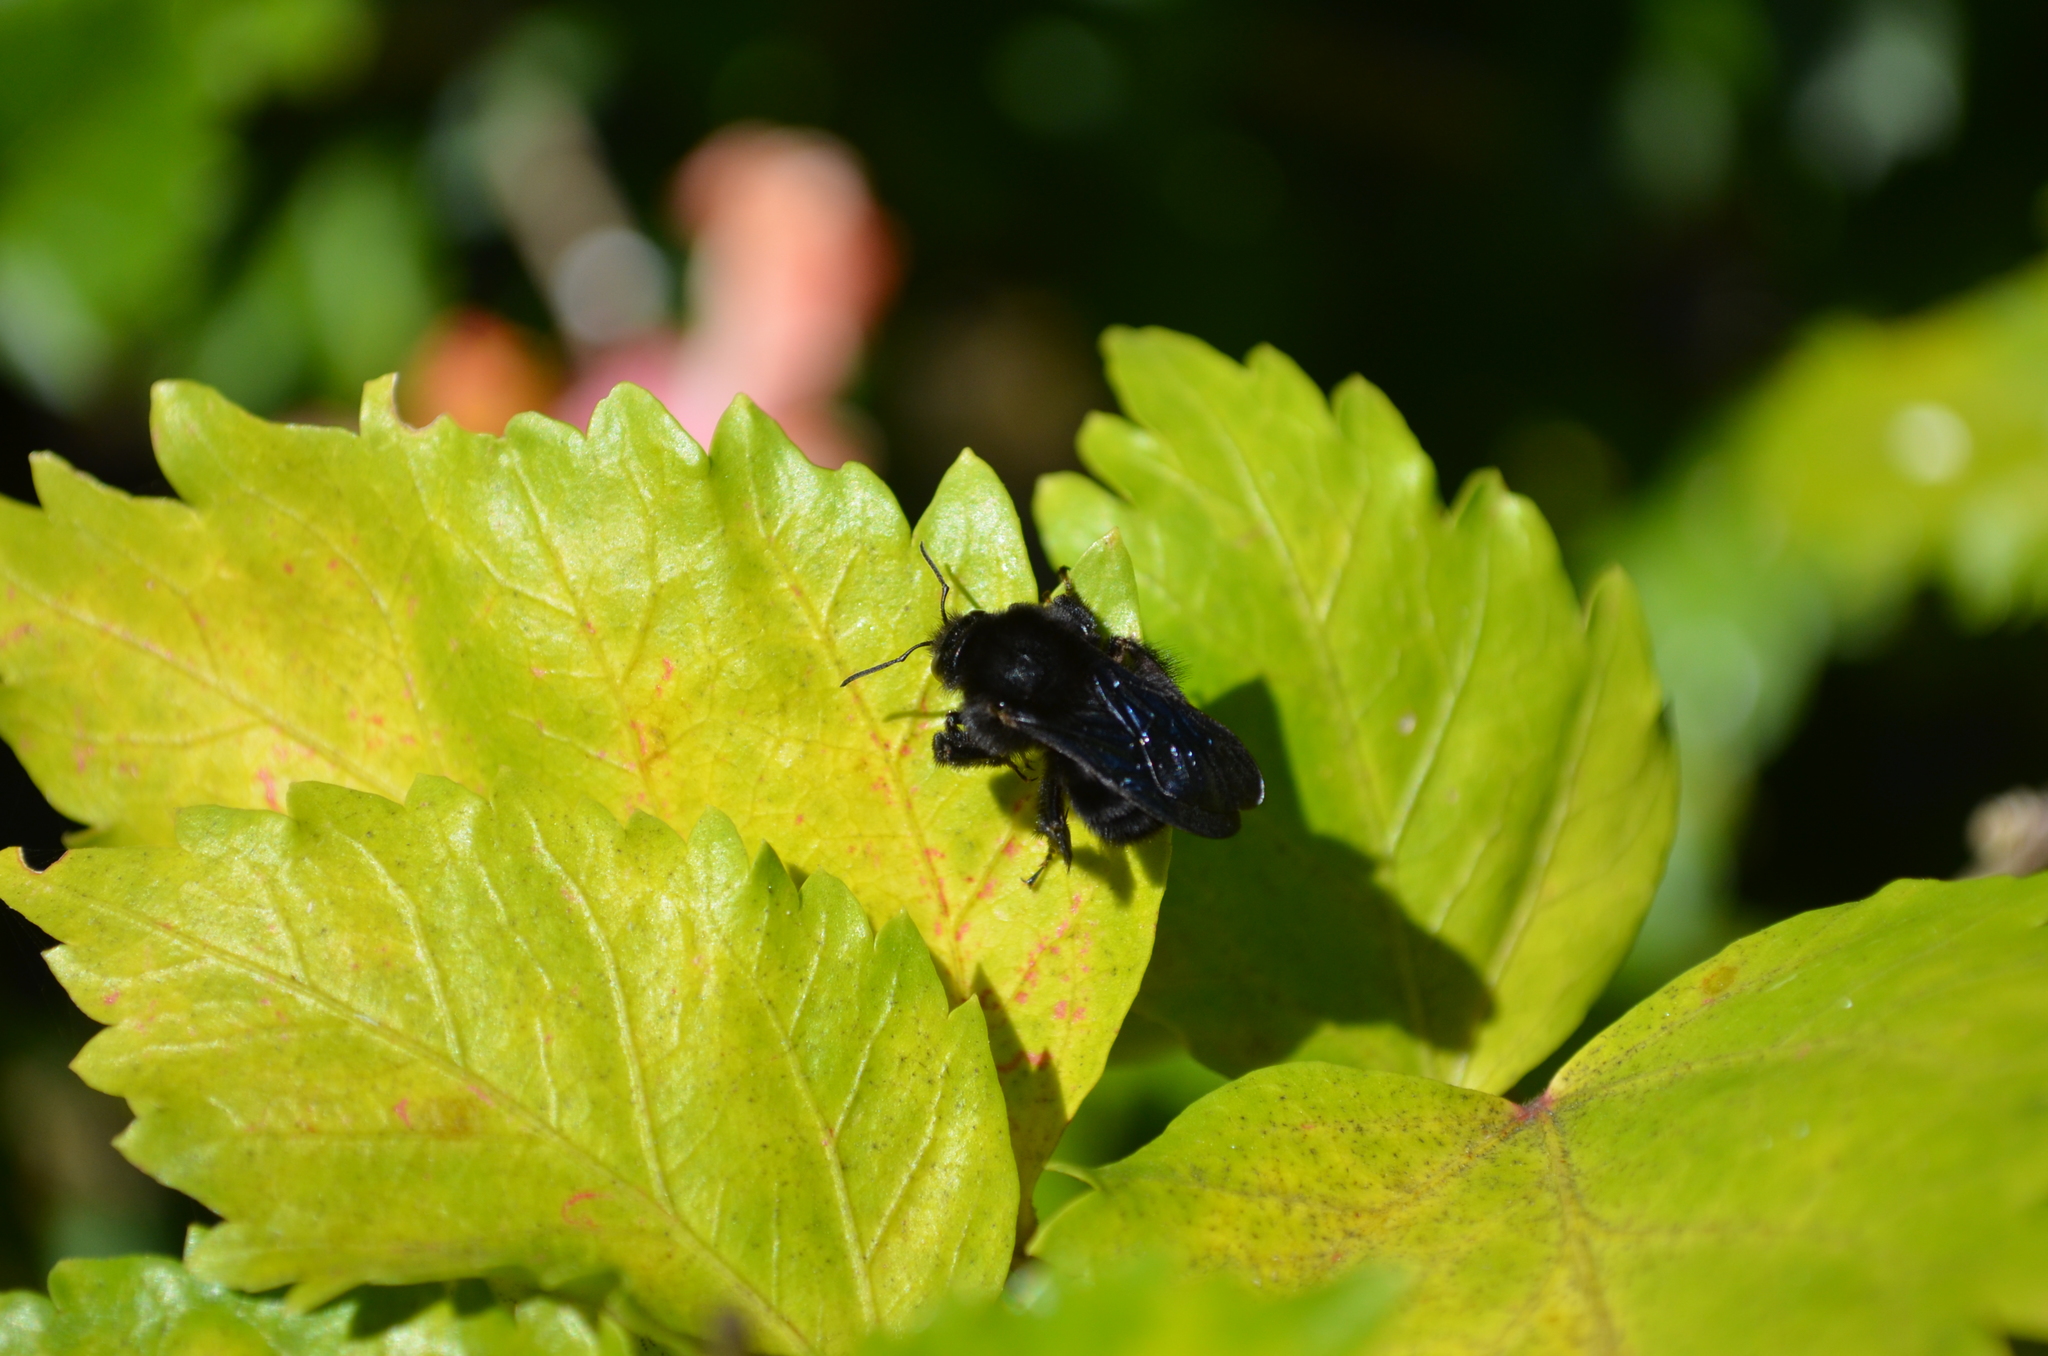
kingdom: Animalia
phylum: Arthropoda
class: Insecta
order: Hymenoptera
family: Apidae
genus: Bombus
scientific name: Bombus pauloensis
